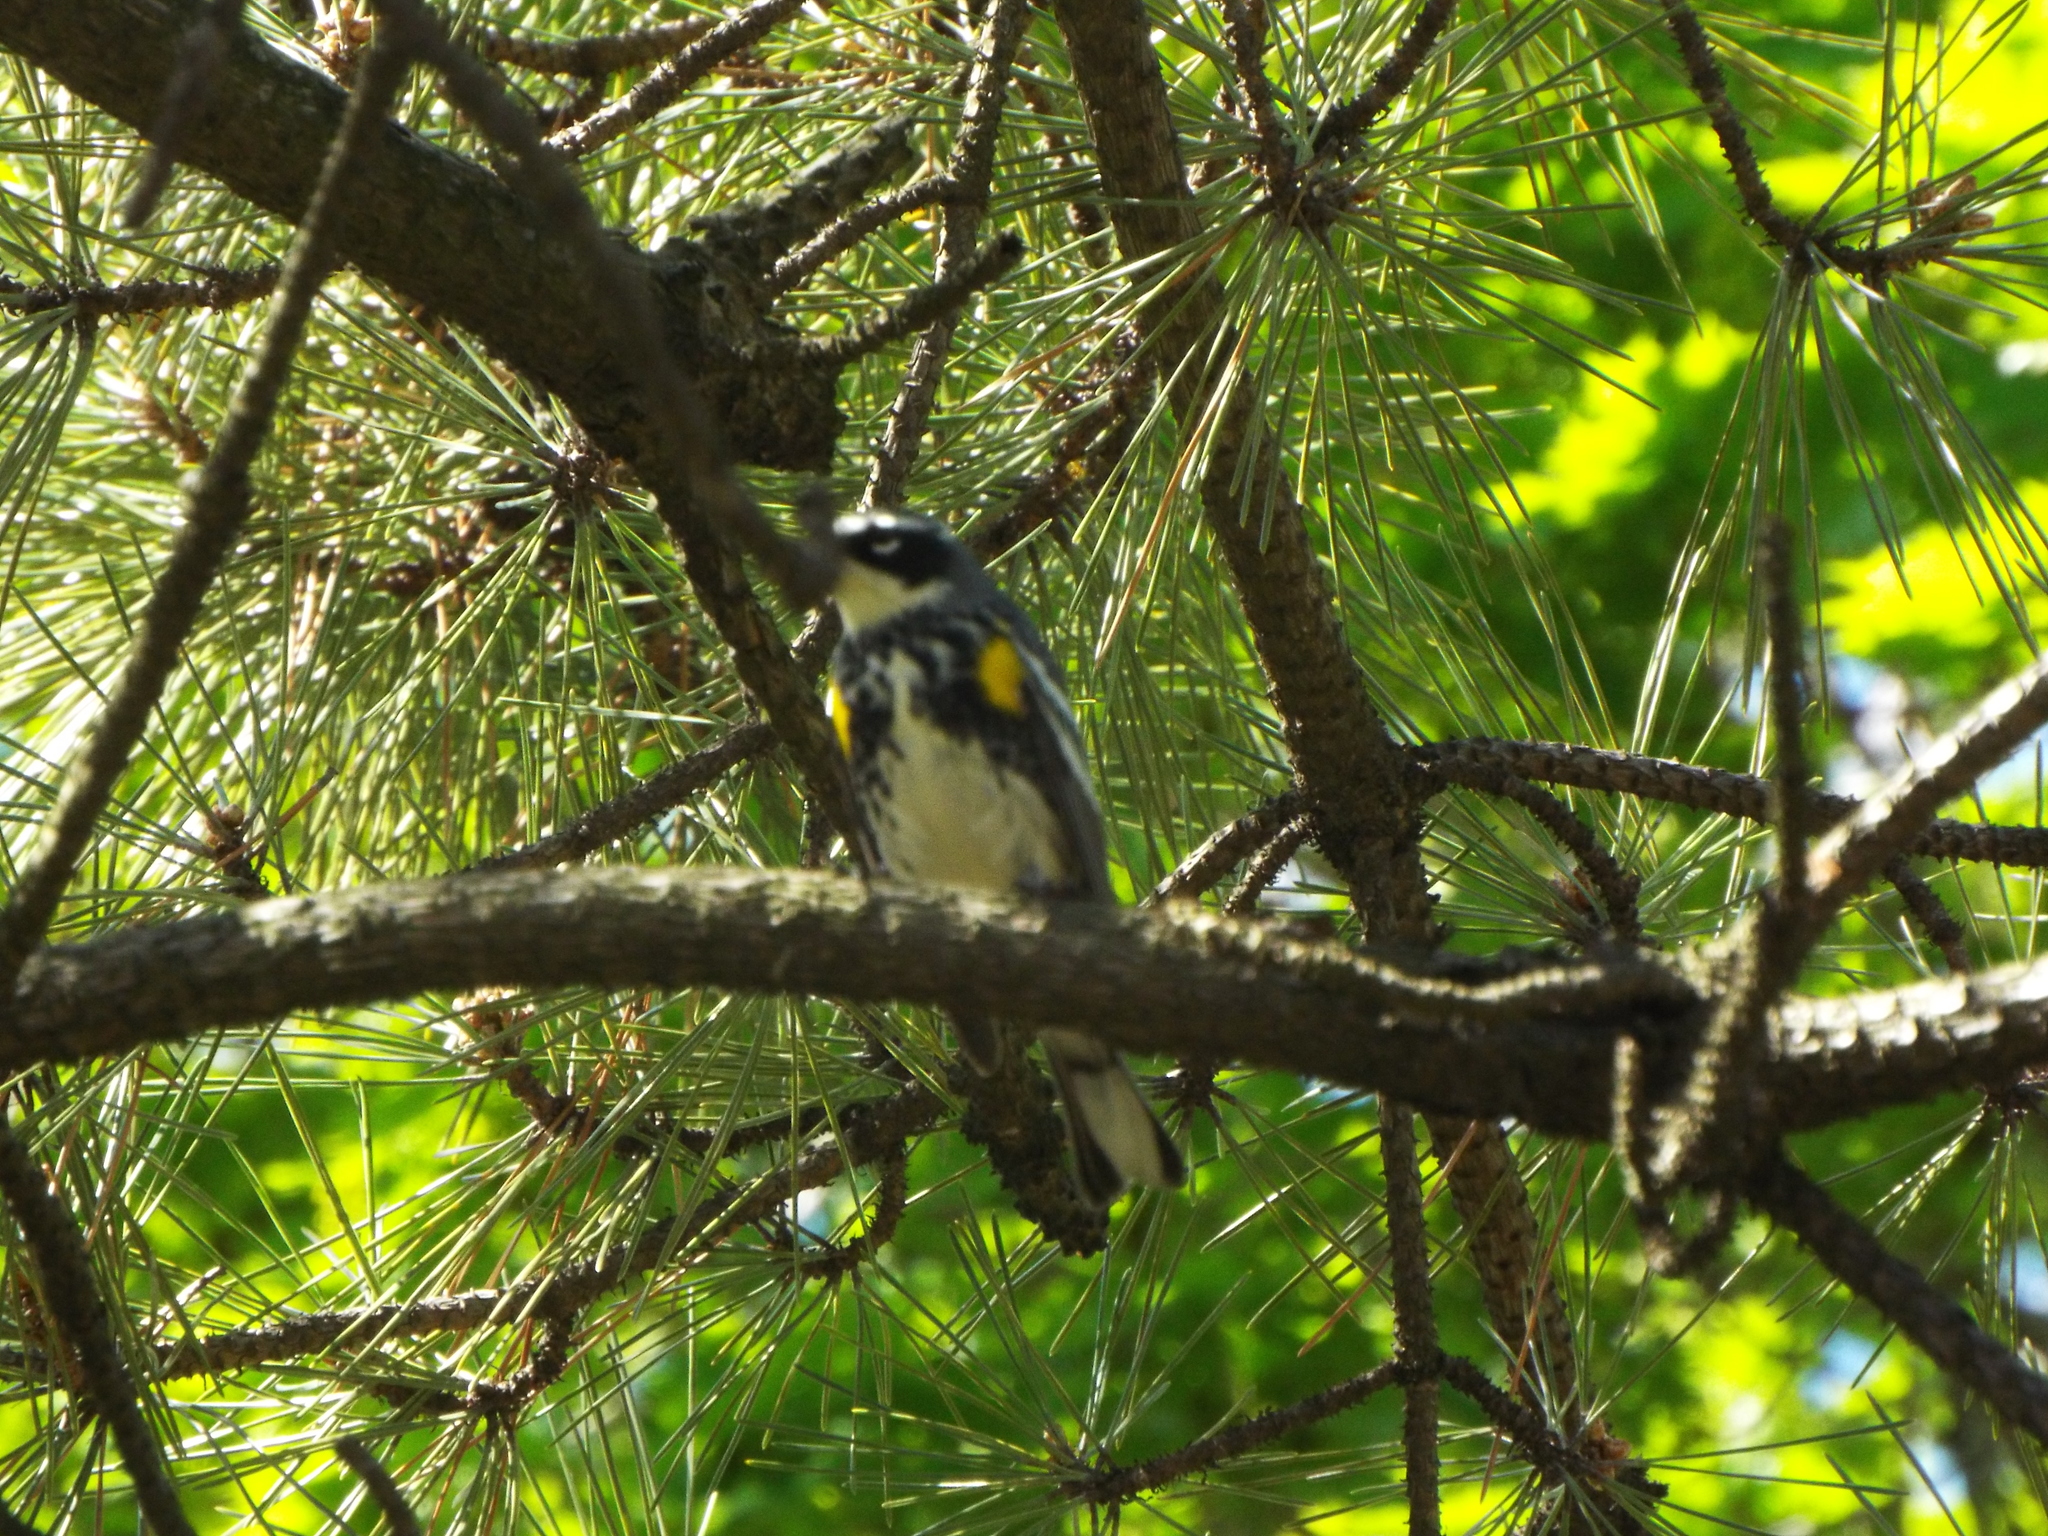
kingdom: Animalia
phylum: Chordata
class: Aves
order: Passeriformes
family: Parulidae
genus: Setophaga
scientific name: Setophaga coronata
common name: Myrtle warbler
